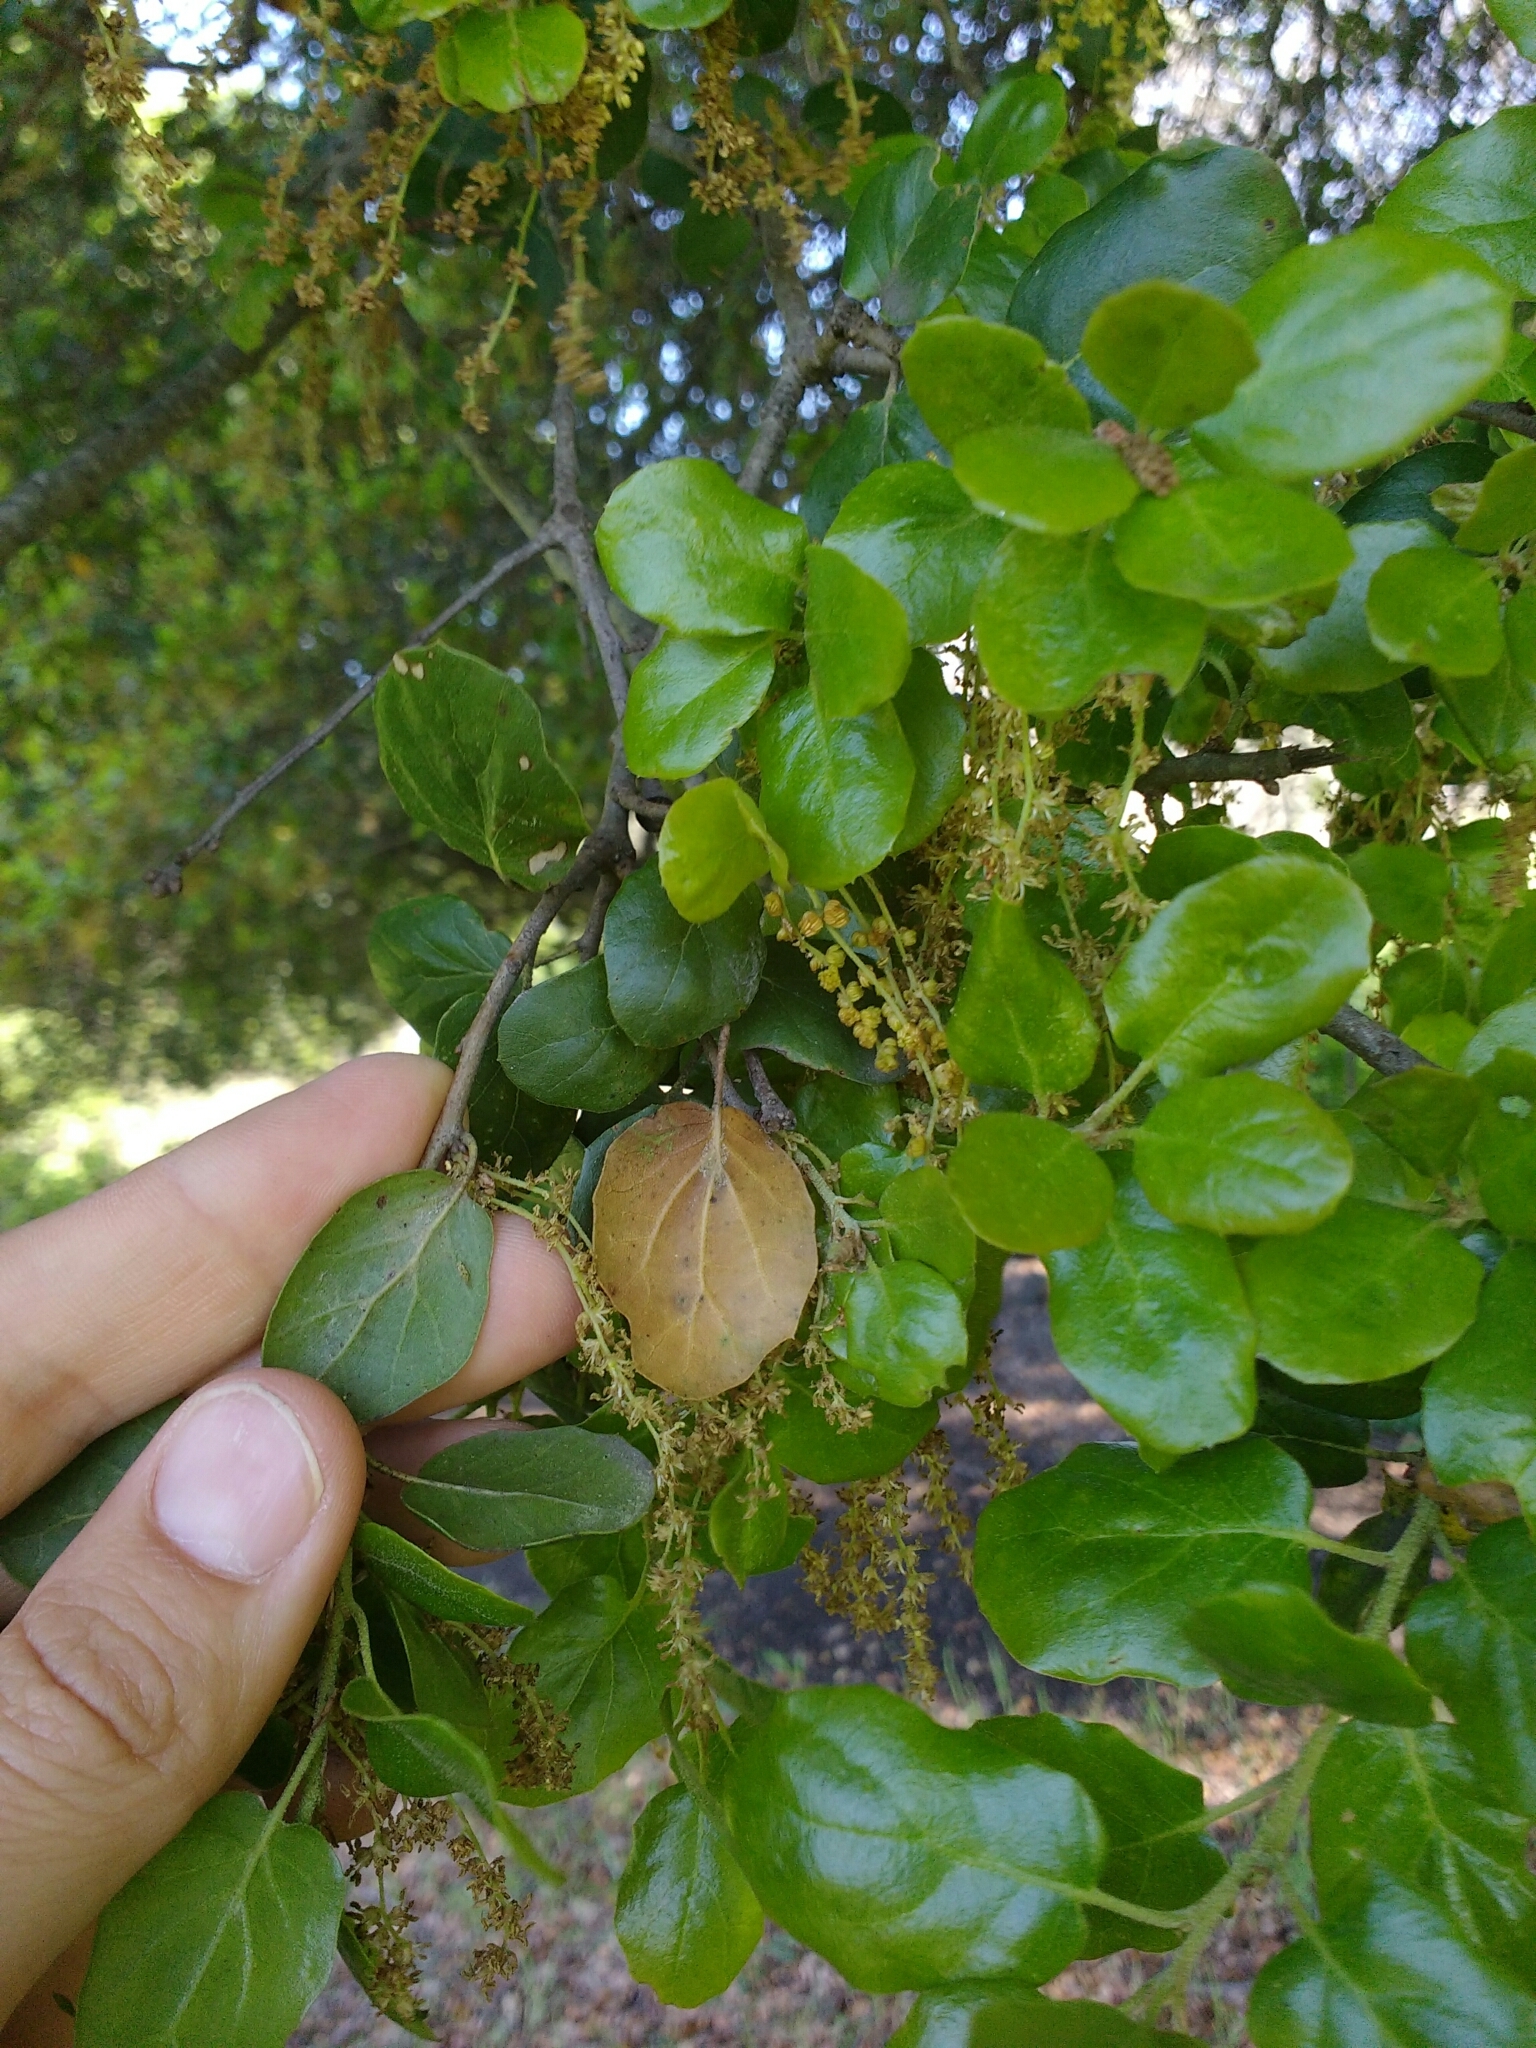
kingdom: Plantae
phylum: Tracheophyta
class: Magnoliopsida
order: Fagales
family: Fagaceae
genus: Quercus
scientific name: Quercus agrifolia
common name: California live oak
